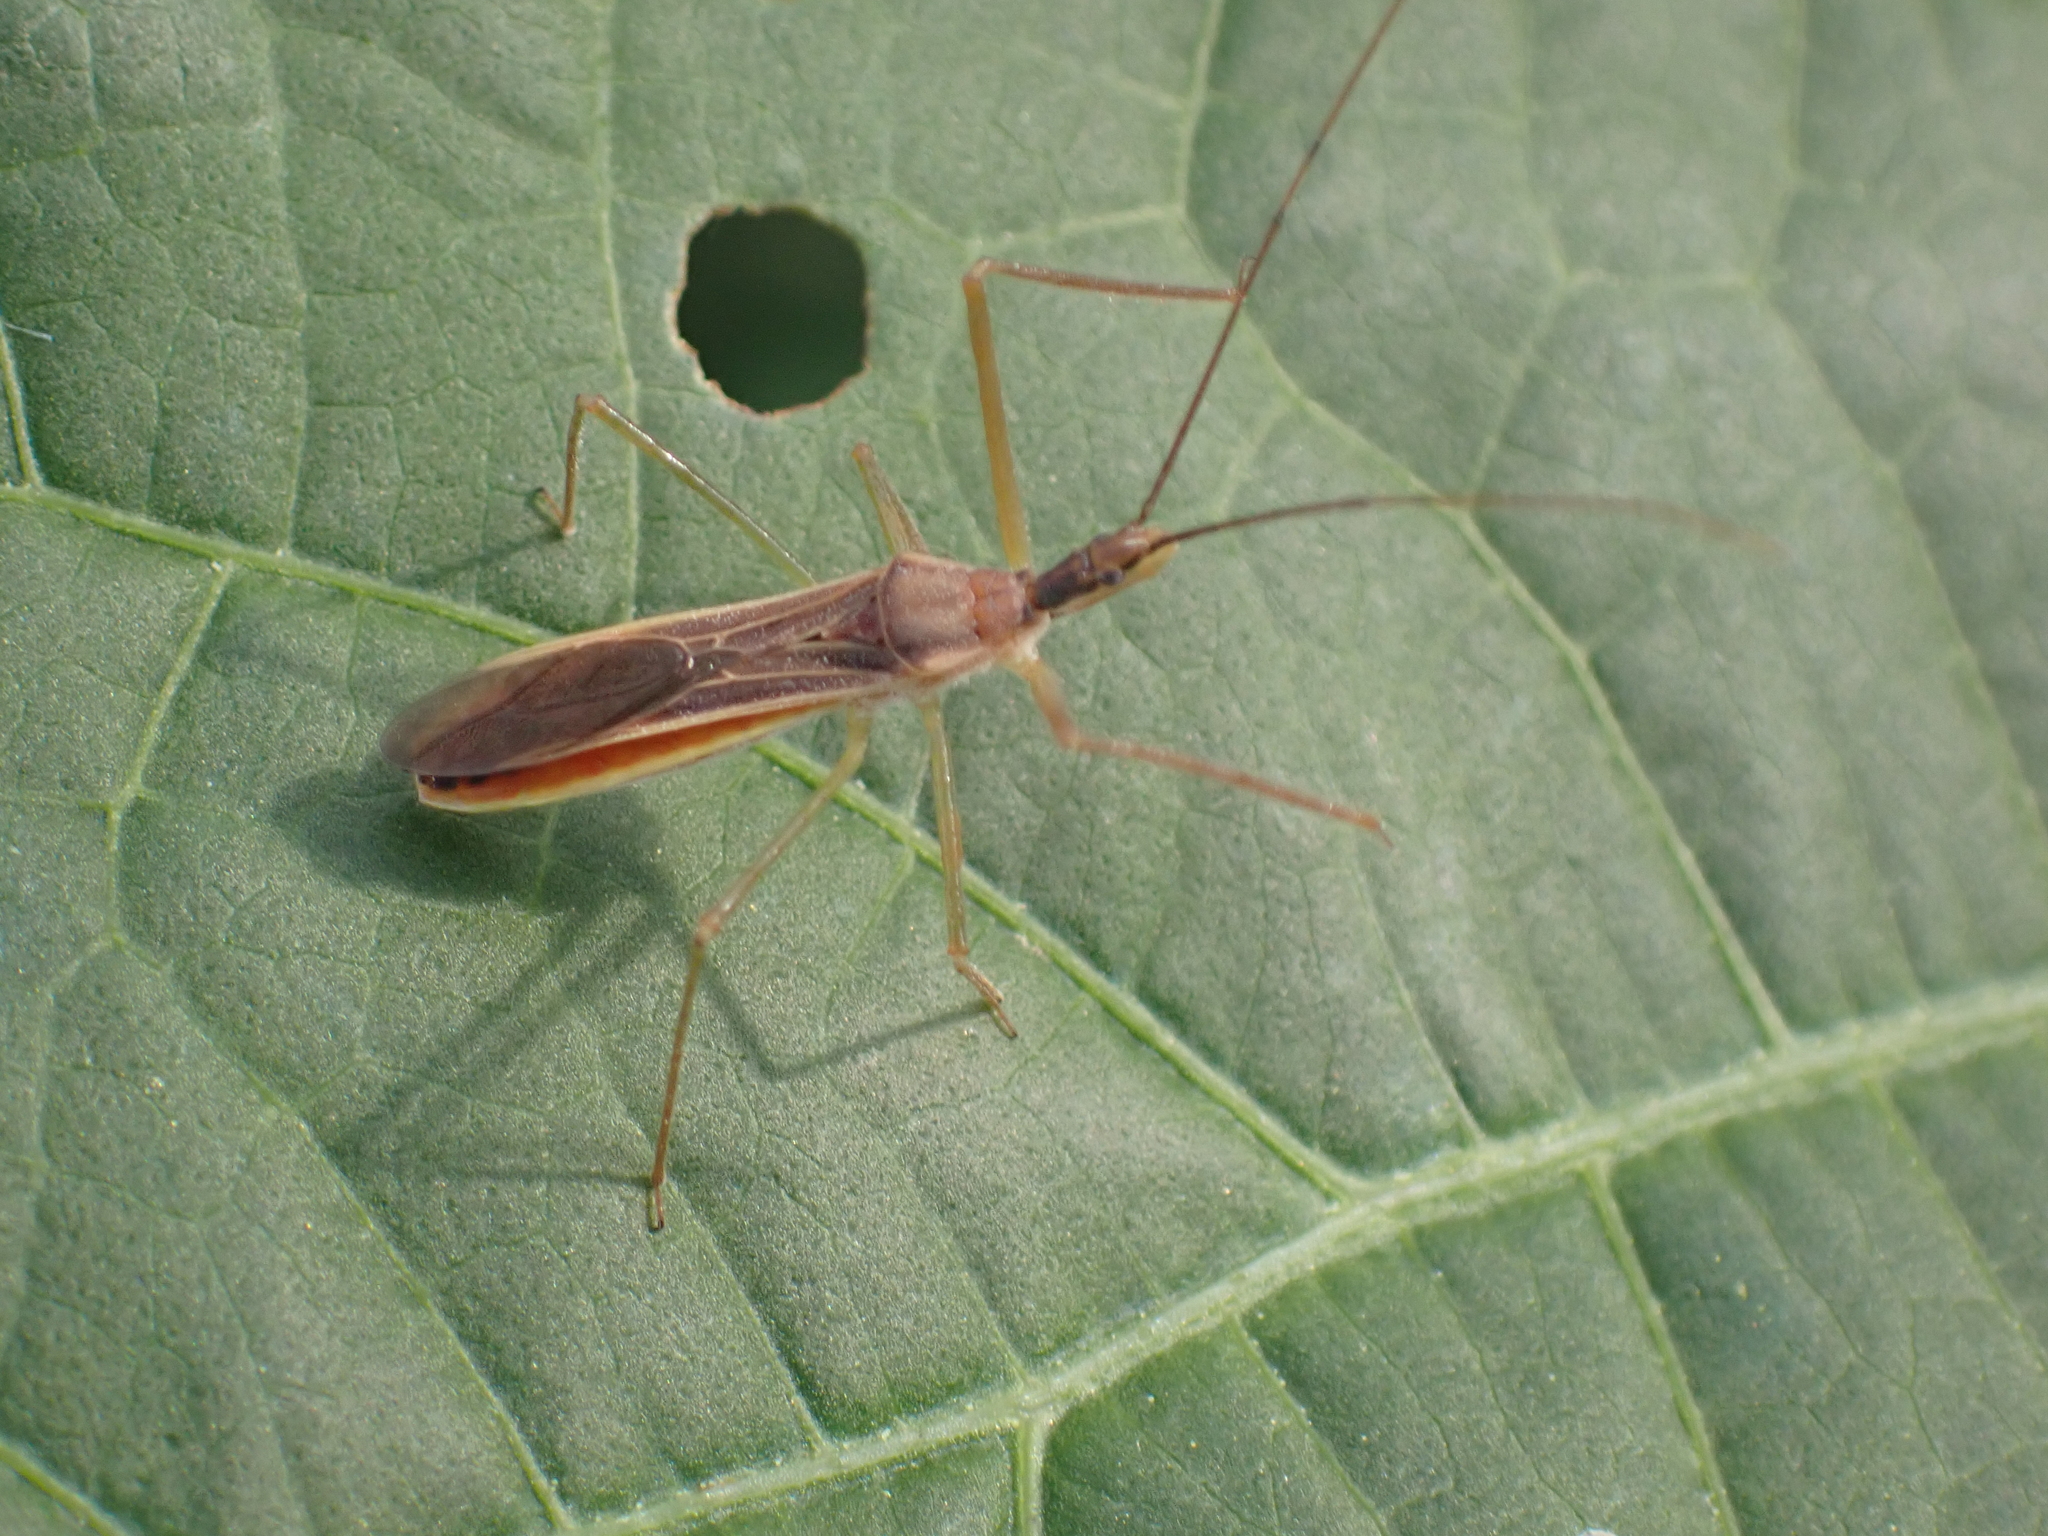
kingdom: Animalia
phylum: Arthropoda
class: Insecta
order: Hemiptera
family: Reduviidae
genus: Zelus
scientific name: Zelus cervicalis
